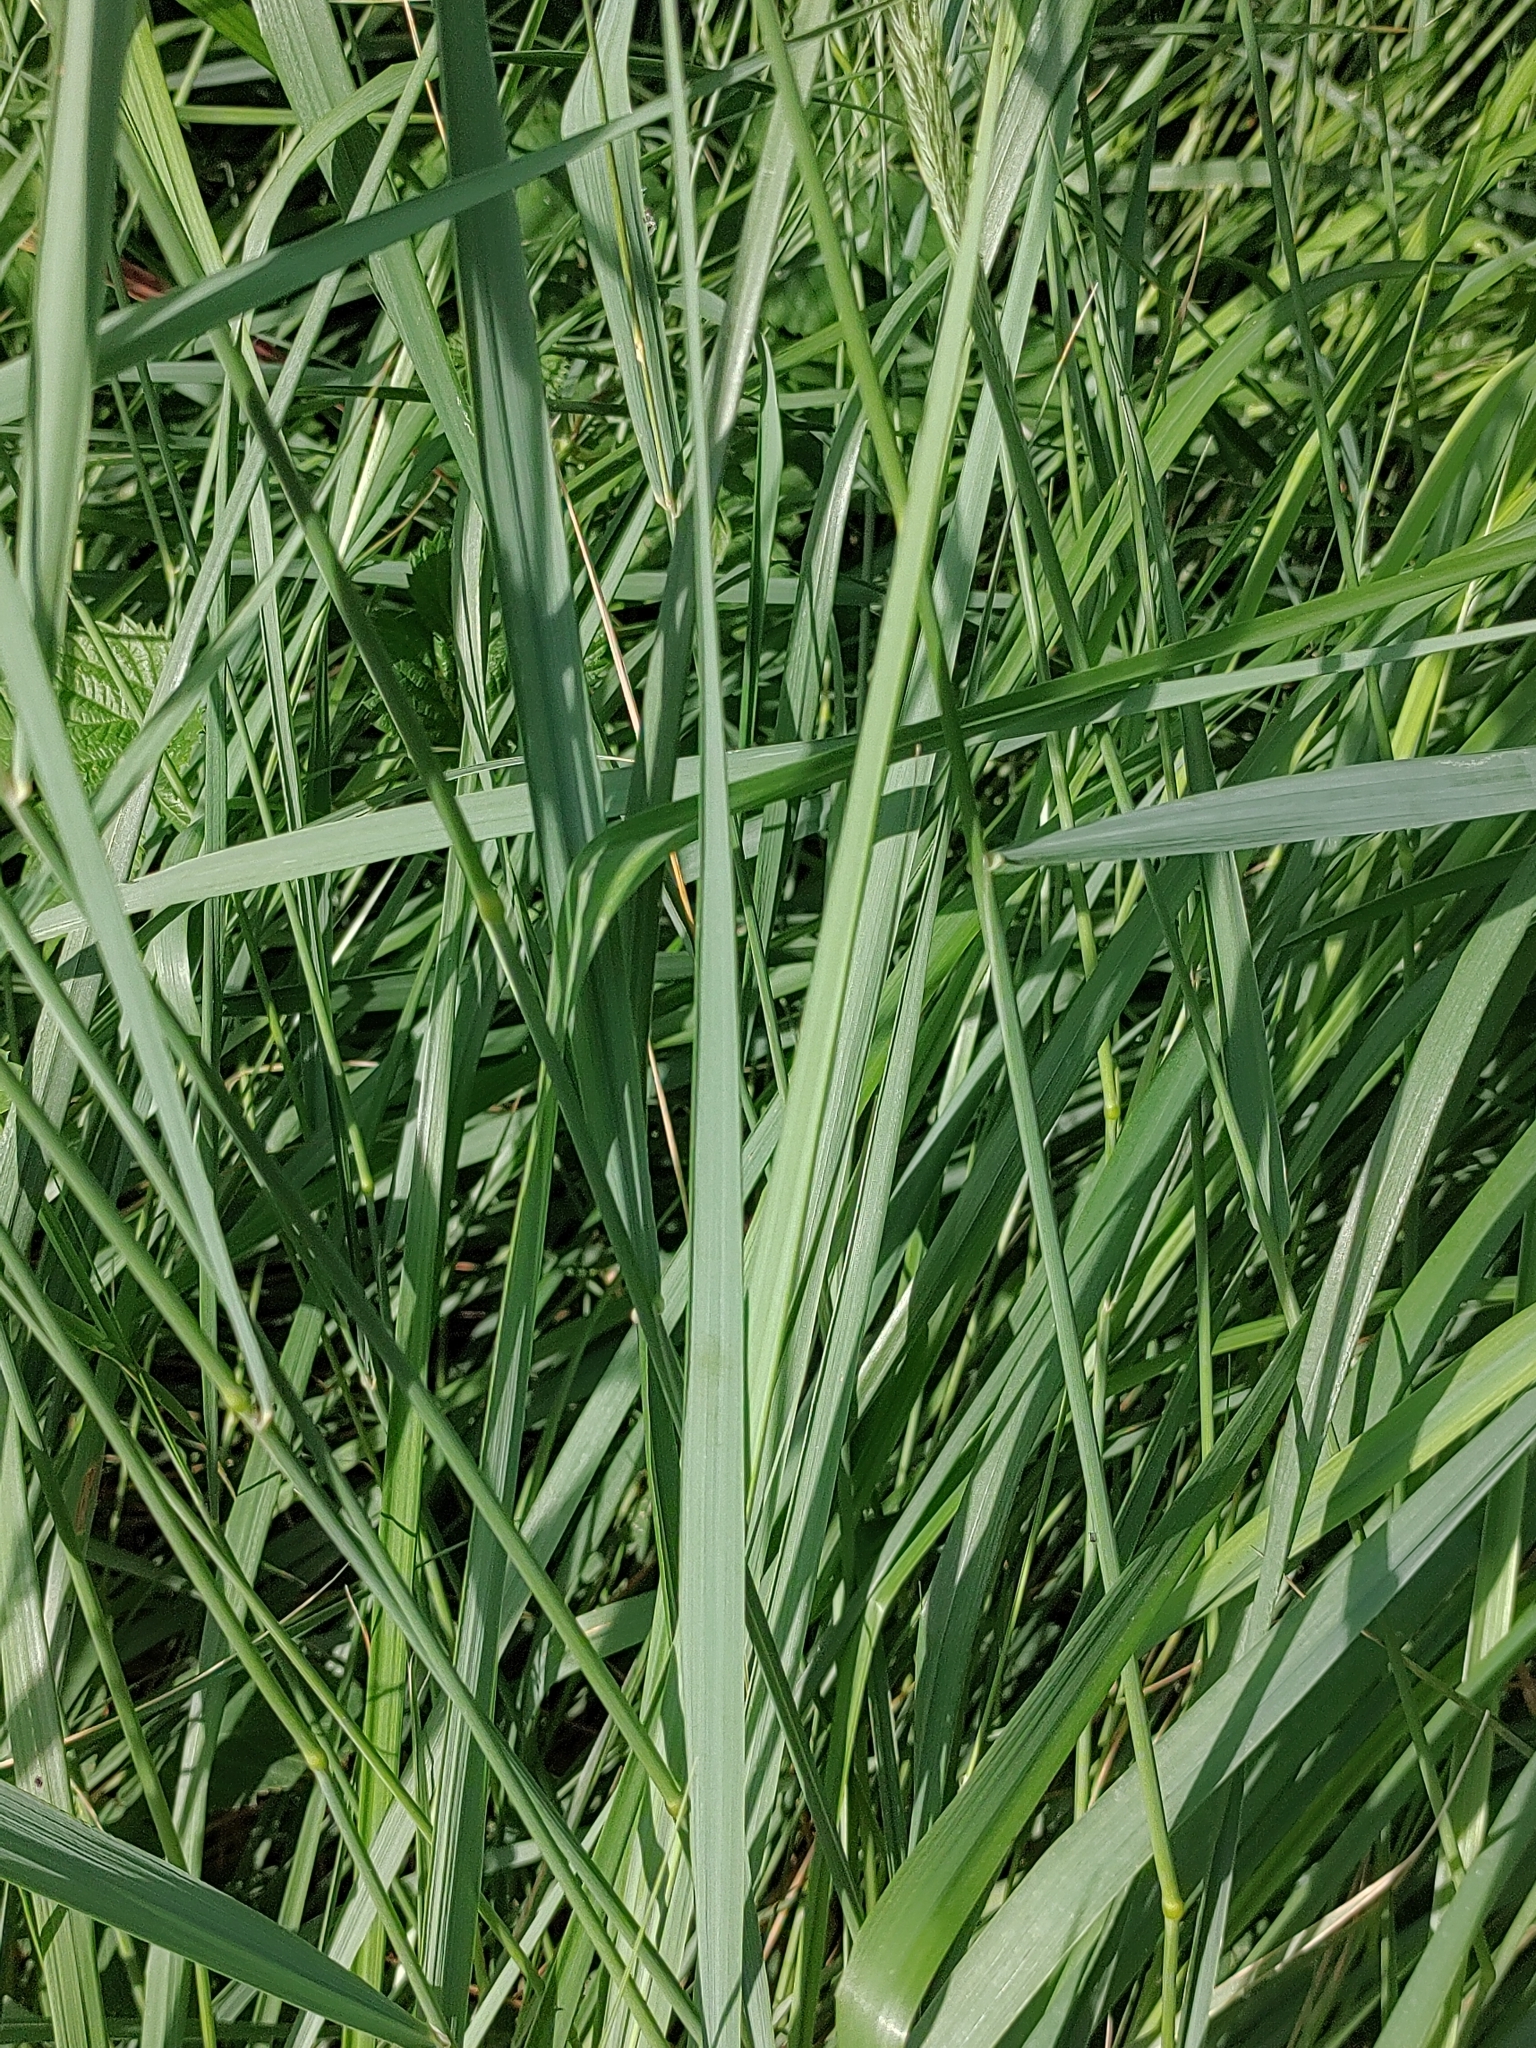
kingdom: Plantae
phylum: Tracheophyta
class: Liliopsida
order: Poales
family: Poaceae
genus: Calamagrostis
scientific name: Calamagrostis epigejos
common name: Wood small-reed
